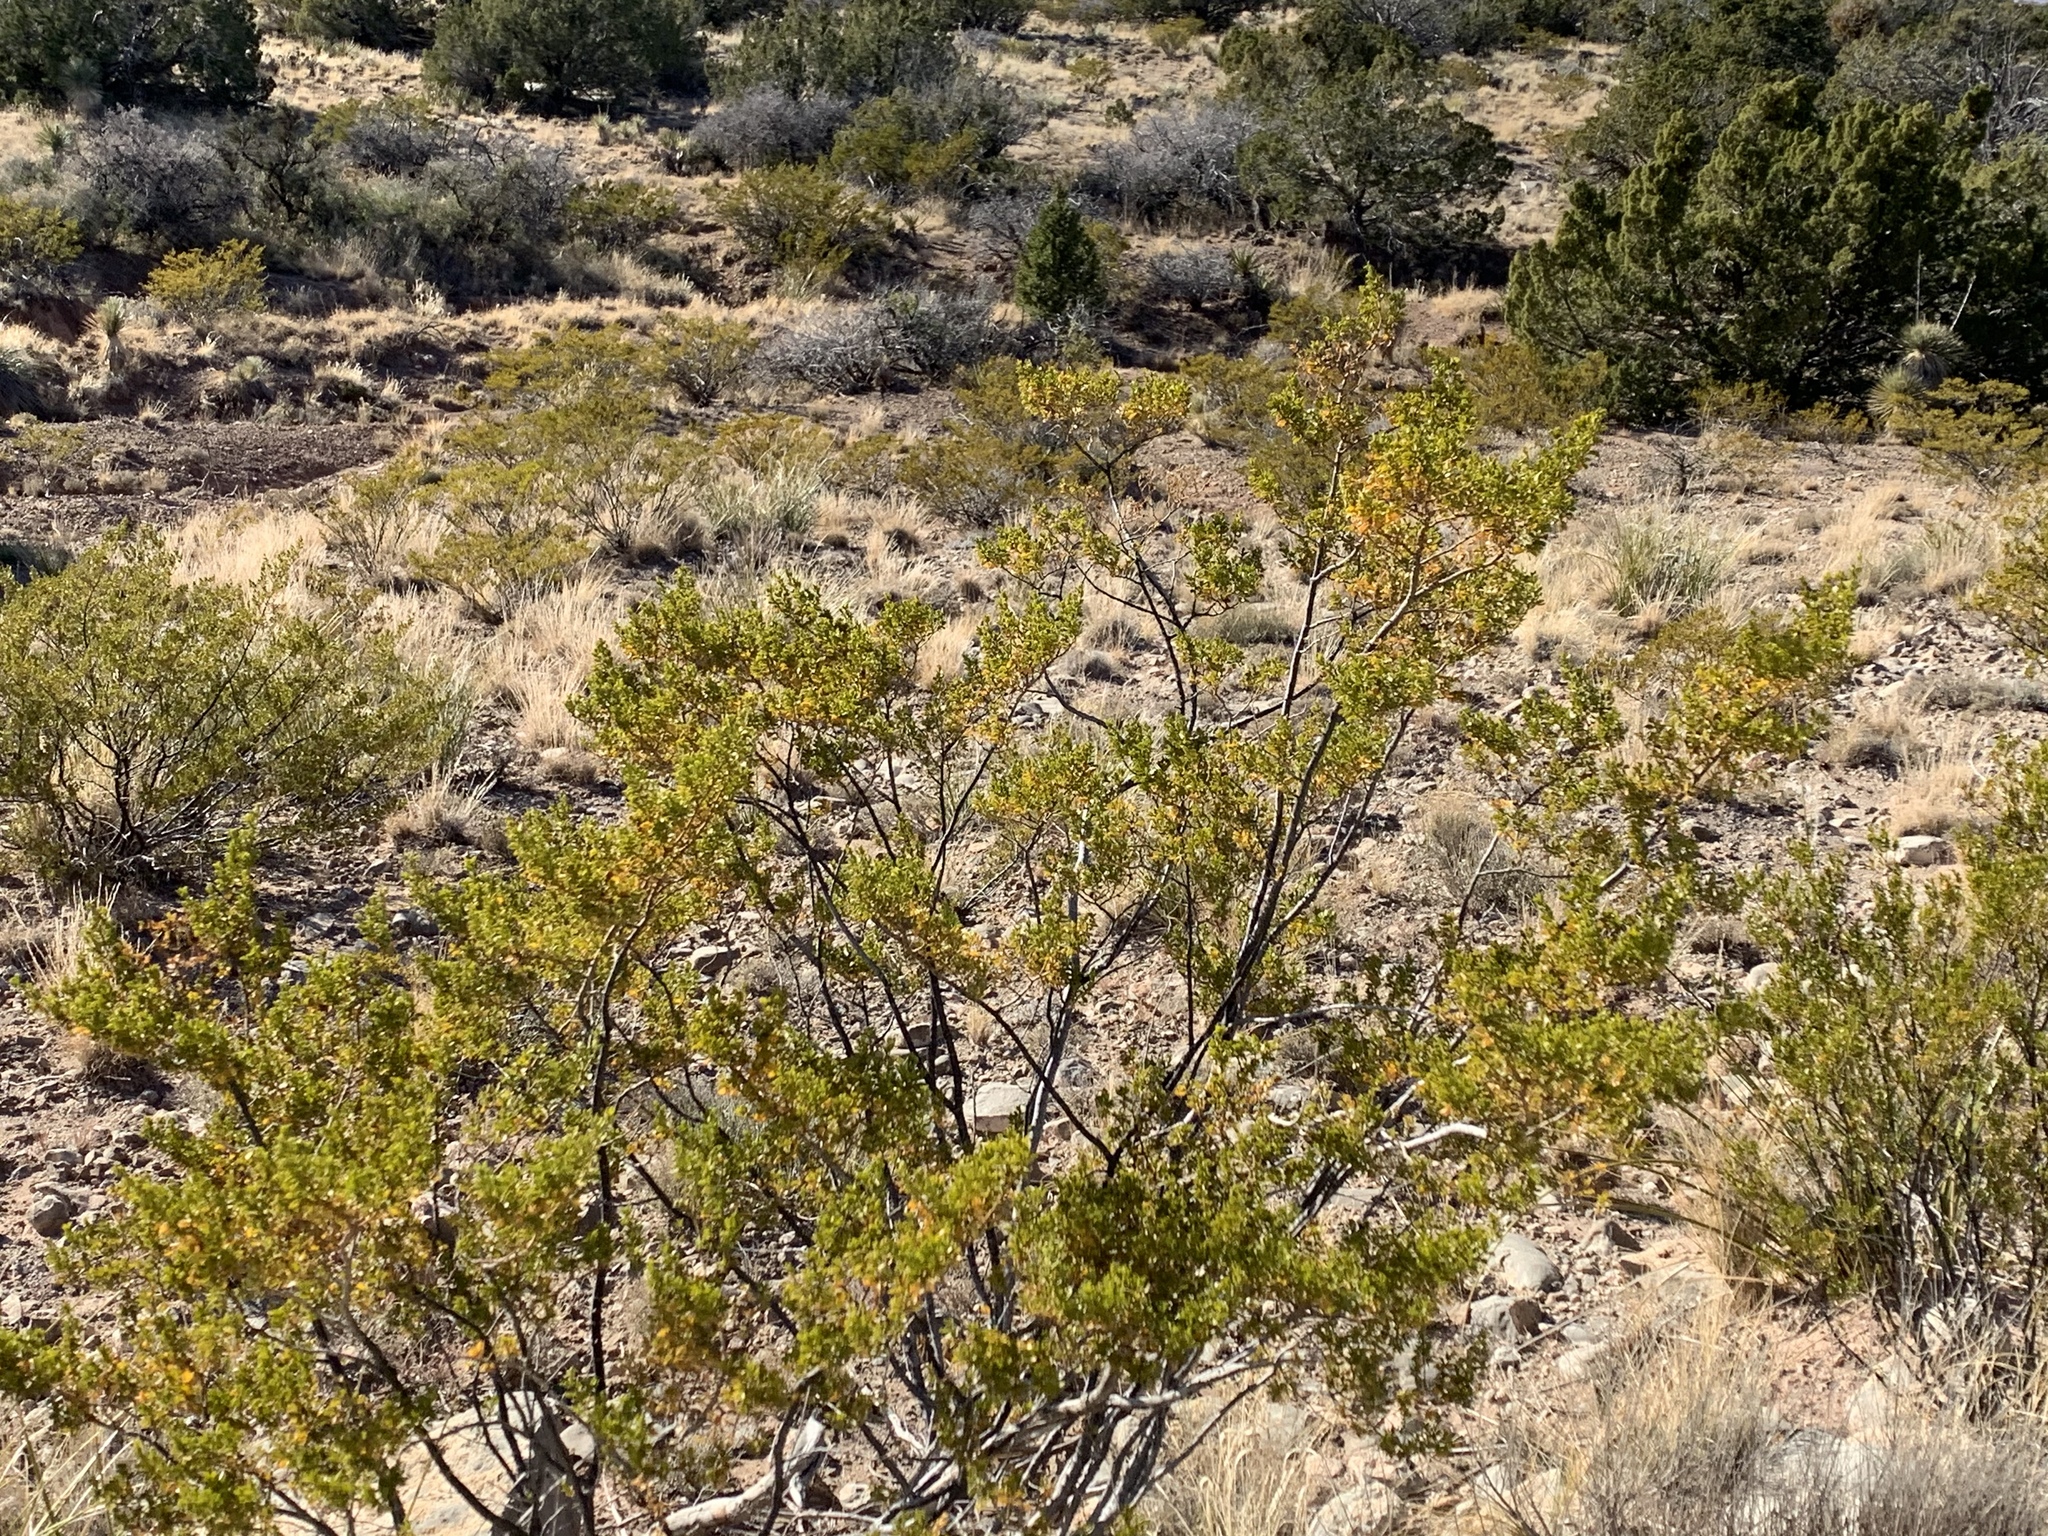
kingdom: Plantae
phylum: Tracheophyta
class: Magnoliopsida
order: Zygophyllales
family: Zygophyllaceae
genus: Larrea
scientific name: Larrea tridentata
